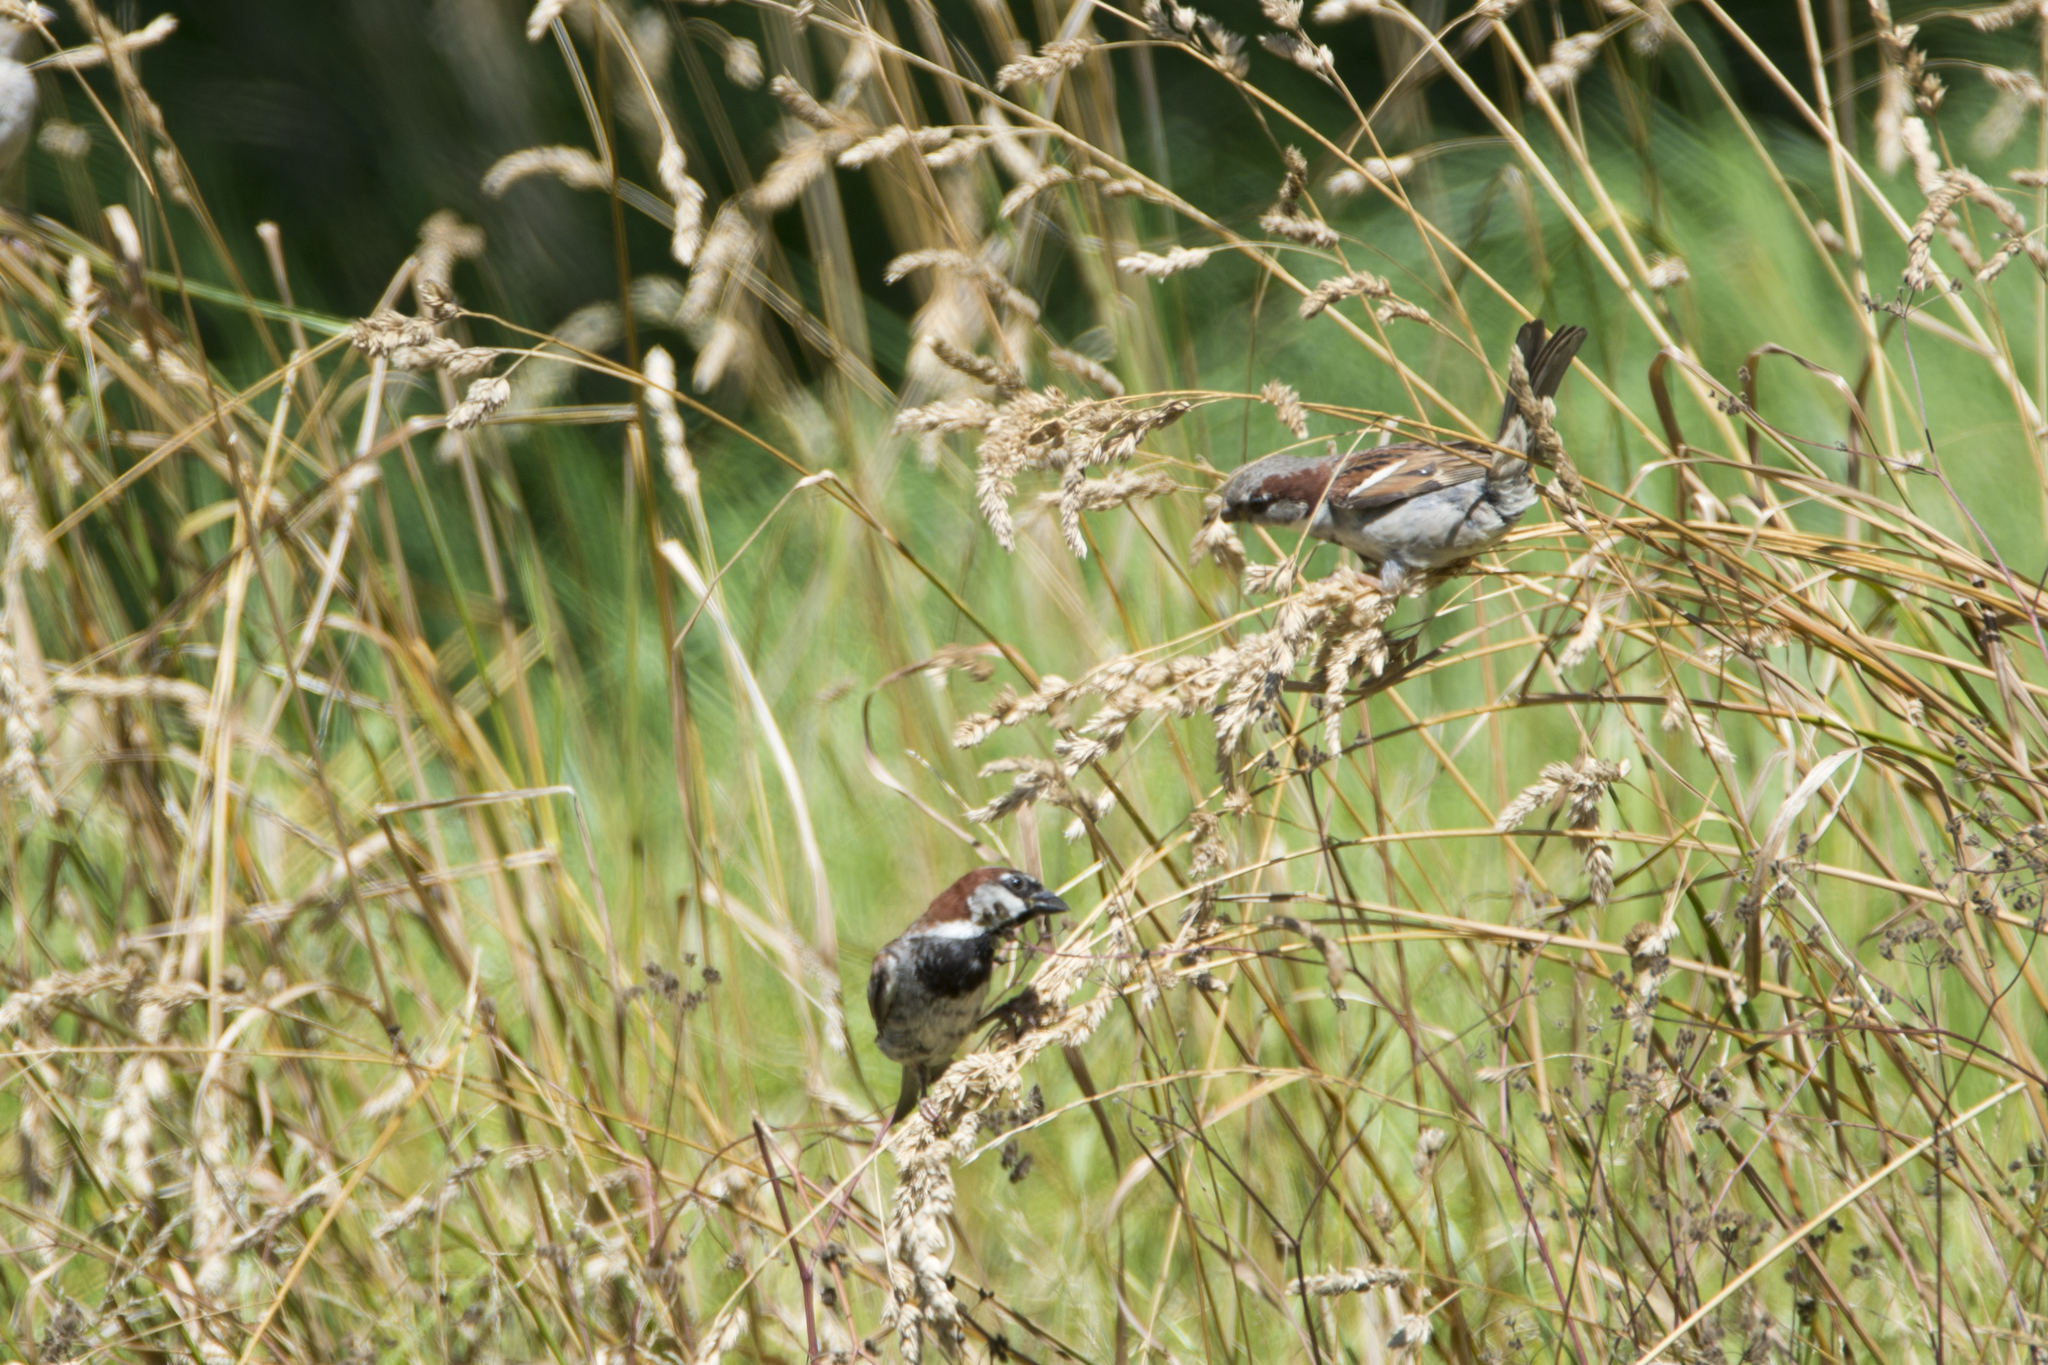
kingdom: Animalia
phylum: Chordata
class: Aves
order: Passeriformes
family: Passeridae
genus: Passer
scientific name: Passer domesticus
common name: House sparrow
